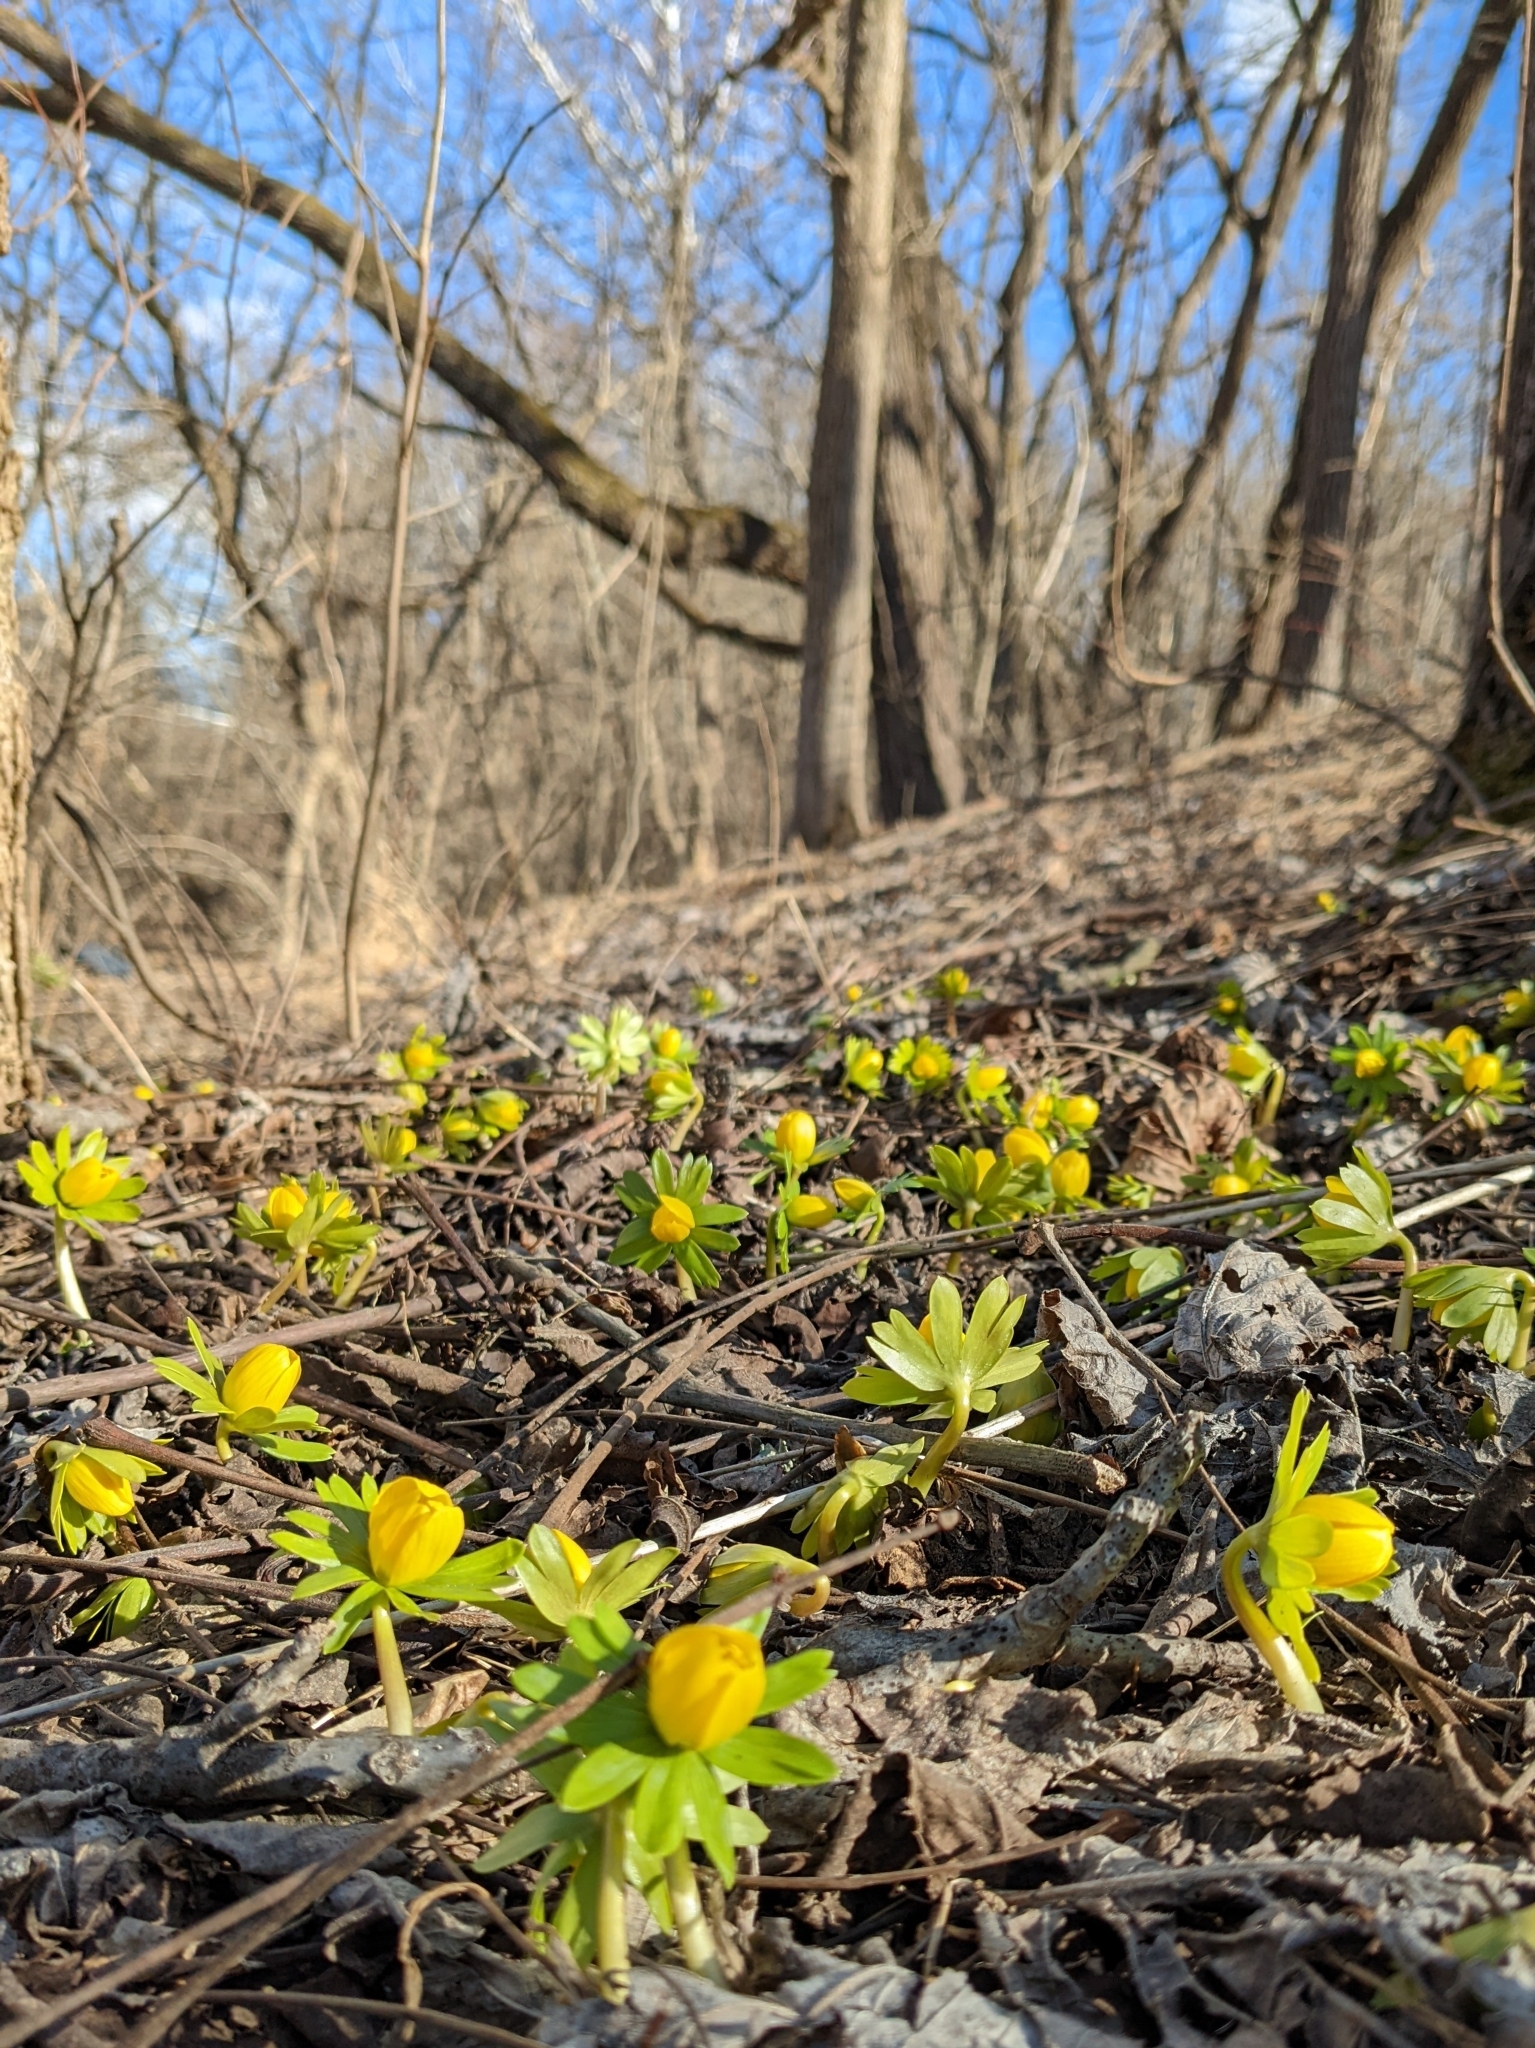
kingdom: Plantae
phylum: Tracheophyta
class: Magnoliopsida
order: Ranunculales
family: Ranunculaceae
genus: Eranthis
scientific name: Eranthis hyemalis
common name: Winter aconite
